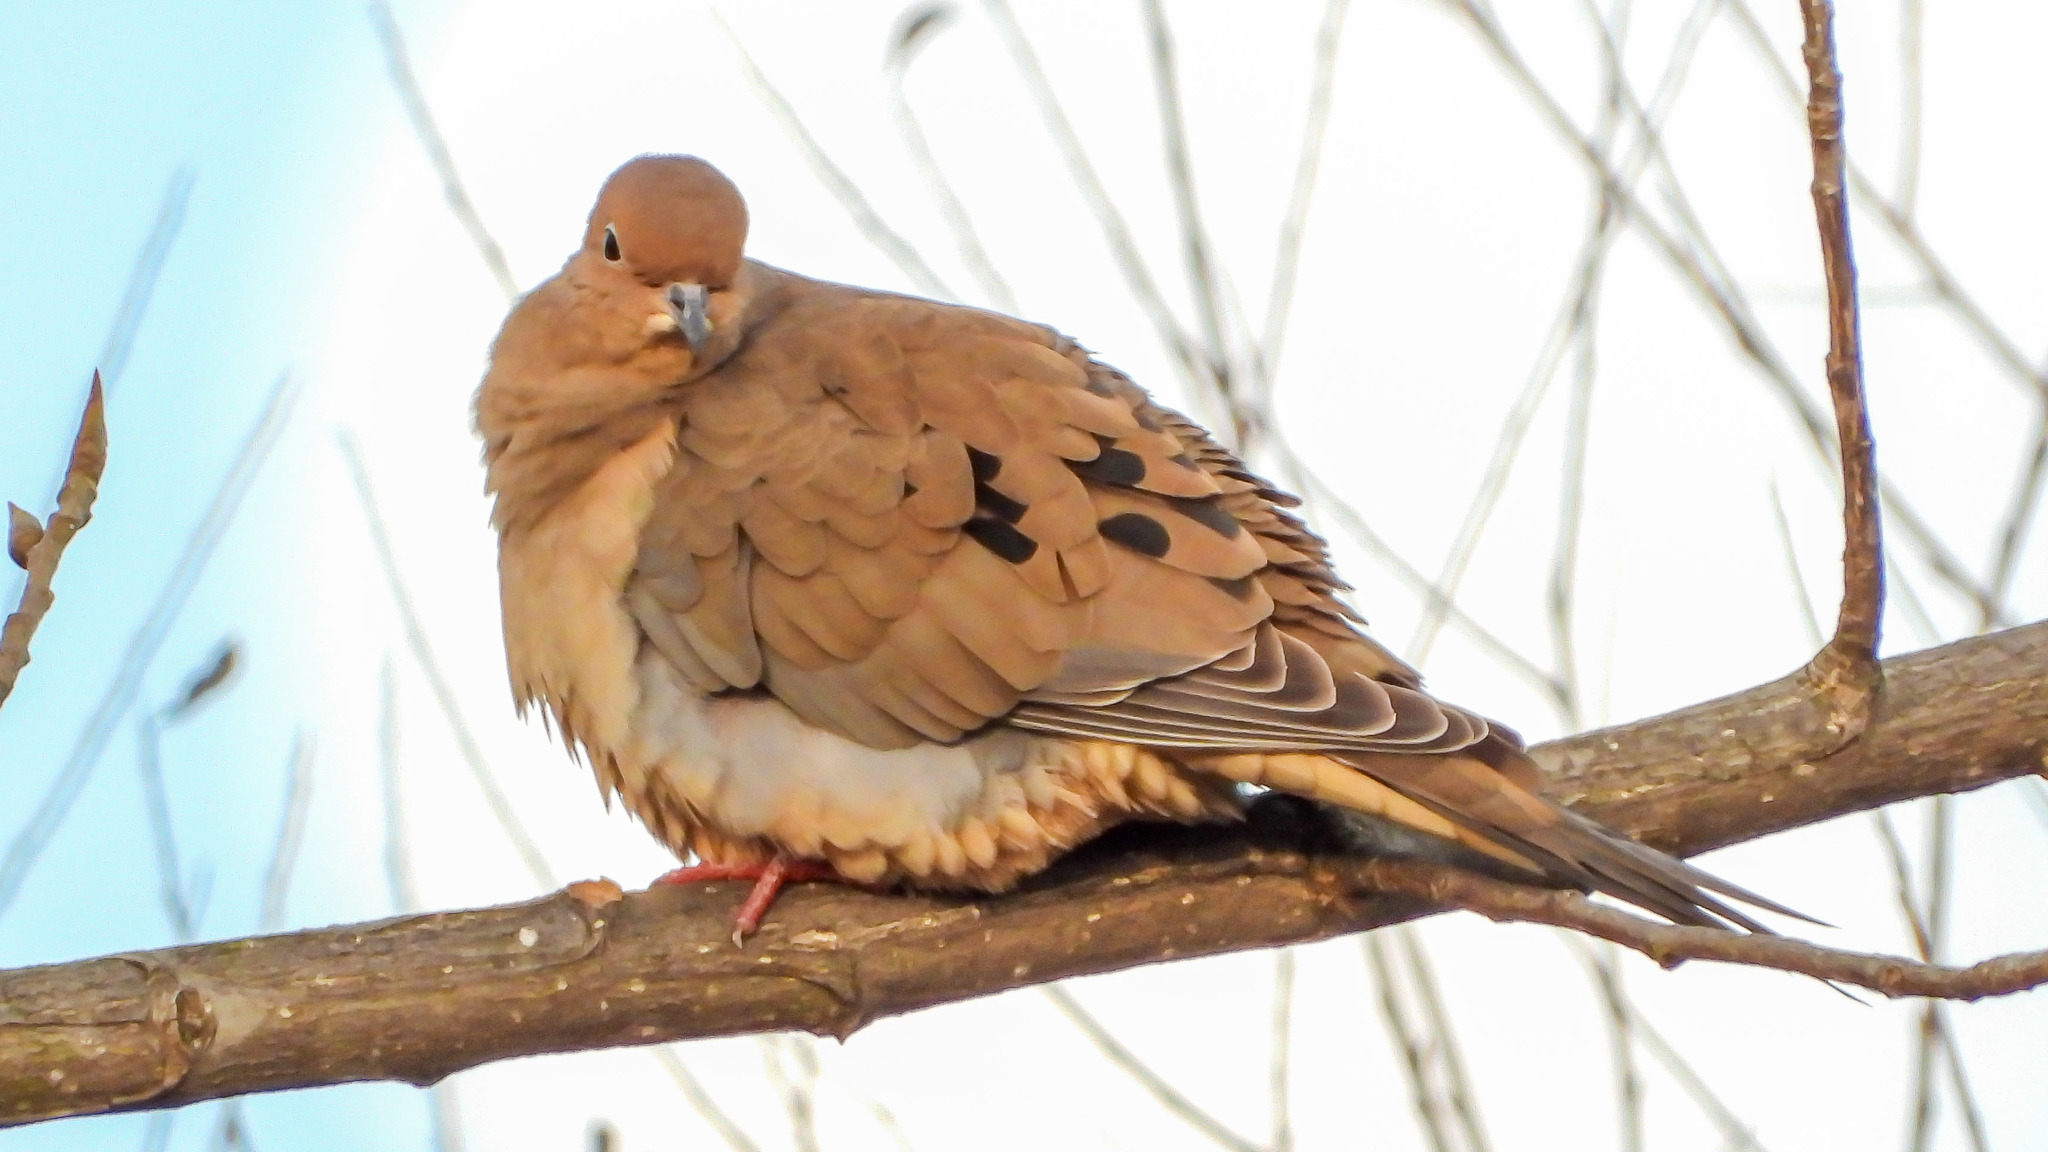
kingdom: Animalia
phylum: Chordata
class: Aves
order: Columbiformes
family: Columbidae
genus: Zenaida
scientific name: Zenaida macroura
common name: Mourning dove
